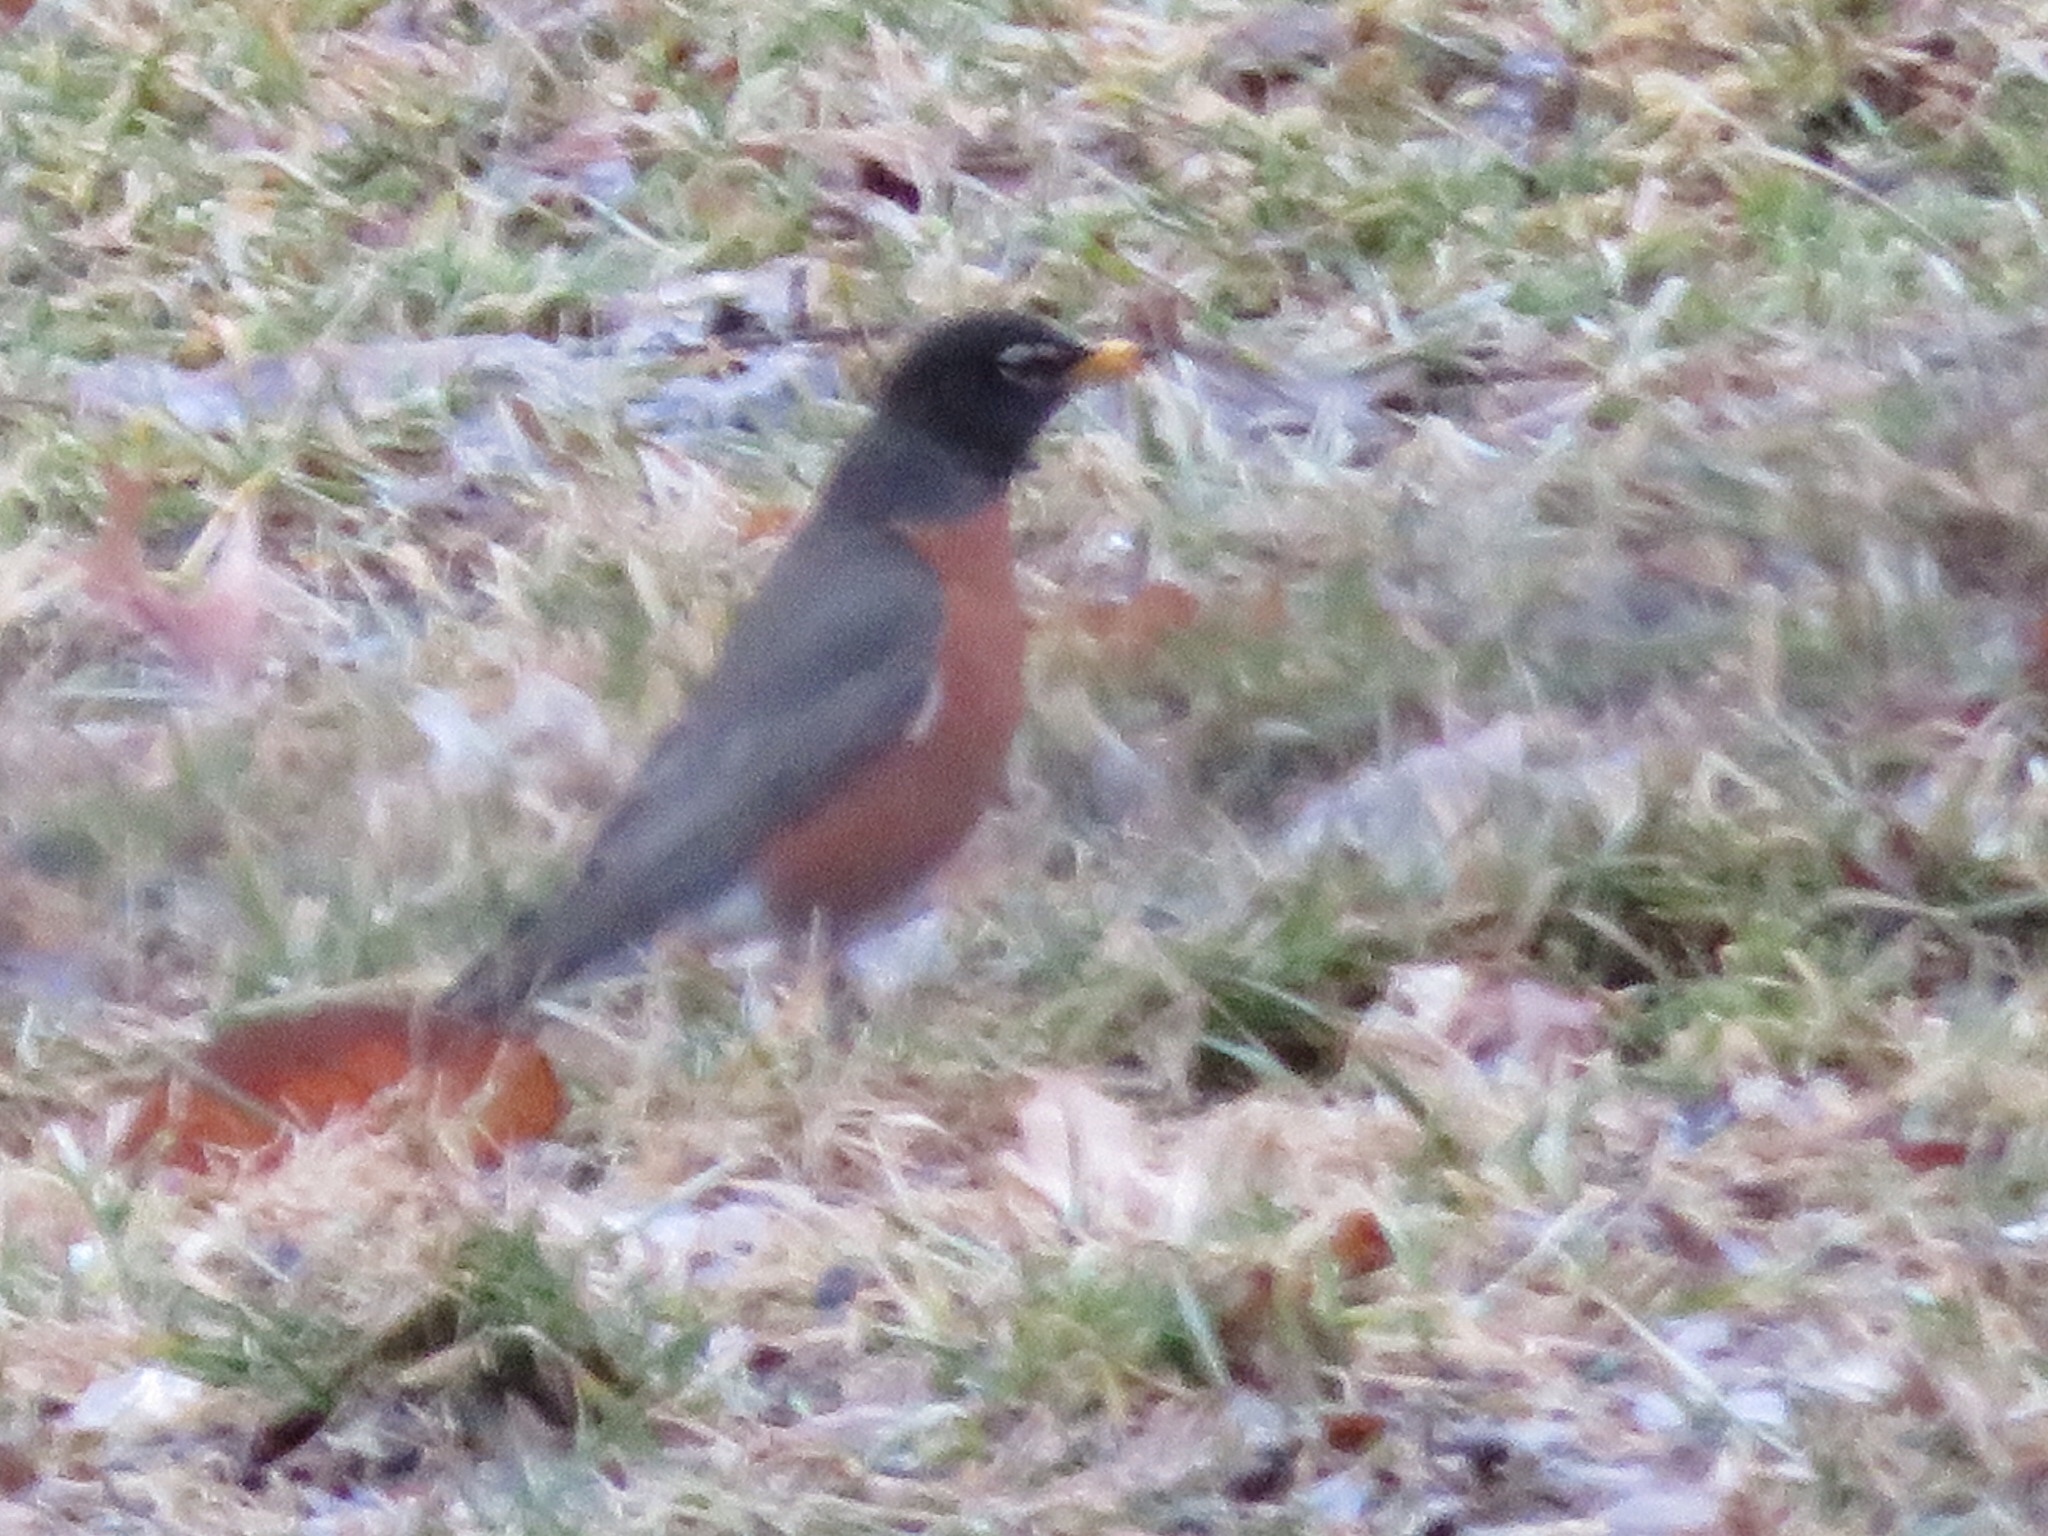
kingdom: Animalia
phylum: Chordata
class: Aves
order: Passeriformes
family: Turdidae
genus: Turdus
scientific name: Turdus migratorius
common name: American robin
